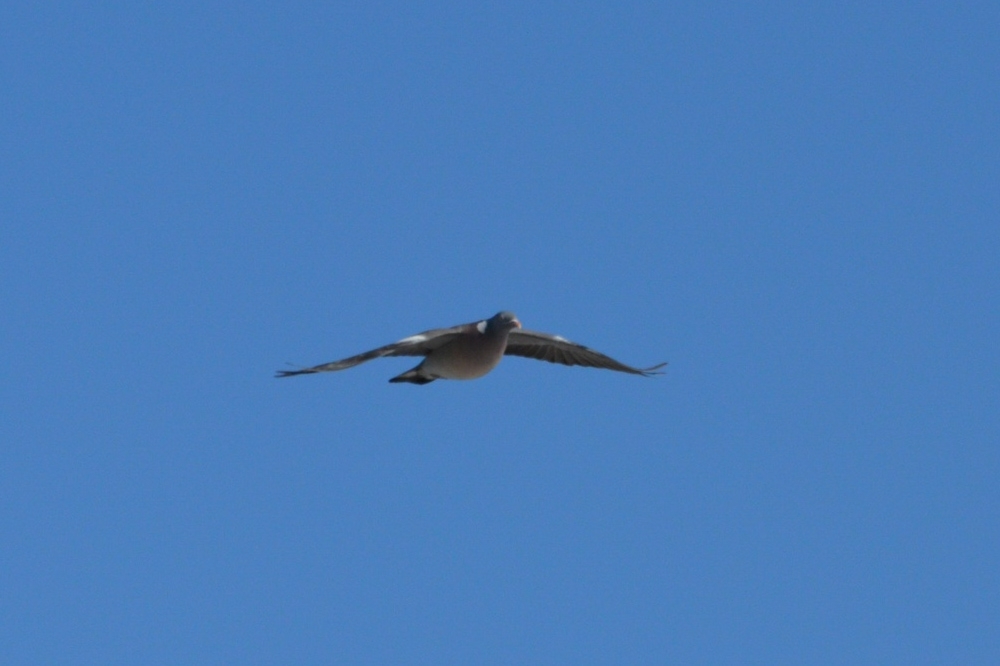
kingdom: Animalia
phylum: Chordata
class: Aves
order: Columbiformes
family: Columbidae
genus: Columba
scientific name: Columba palumbus
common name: Common wood pigeon
